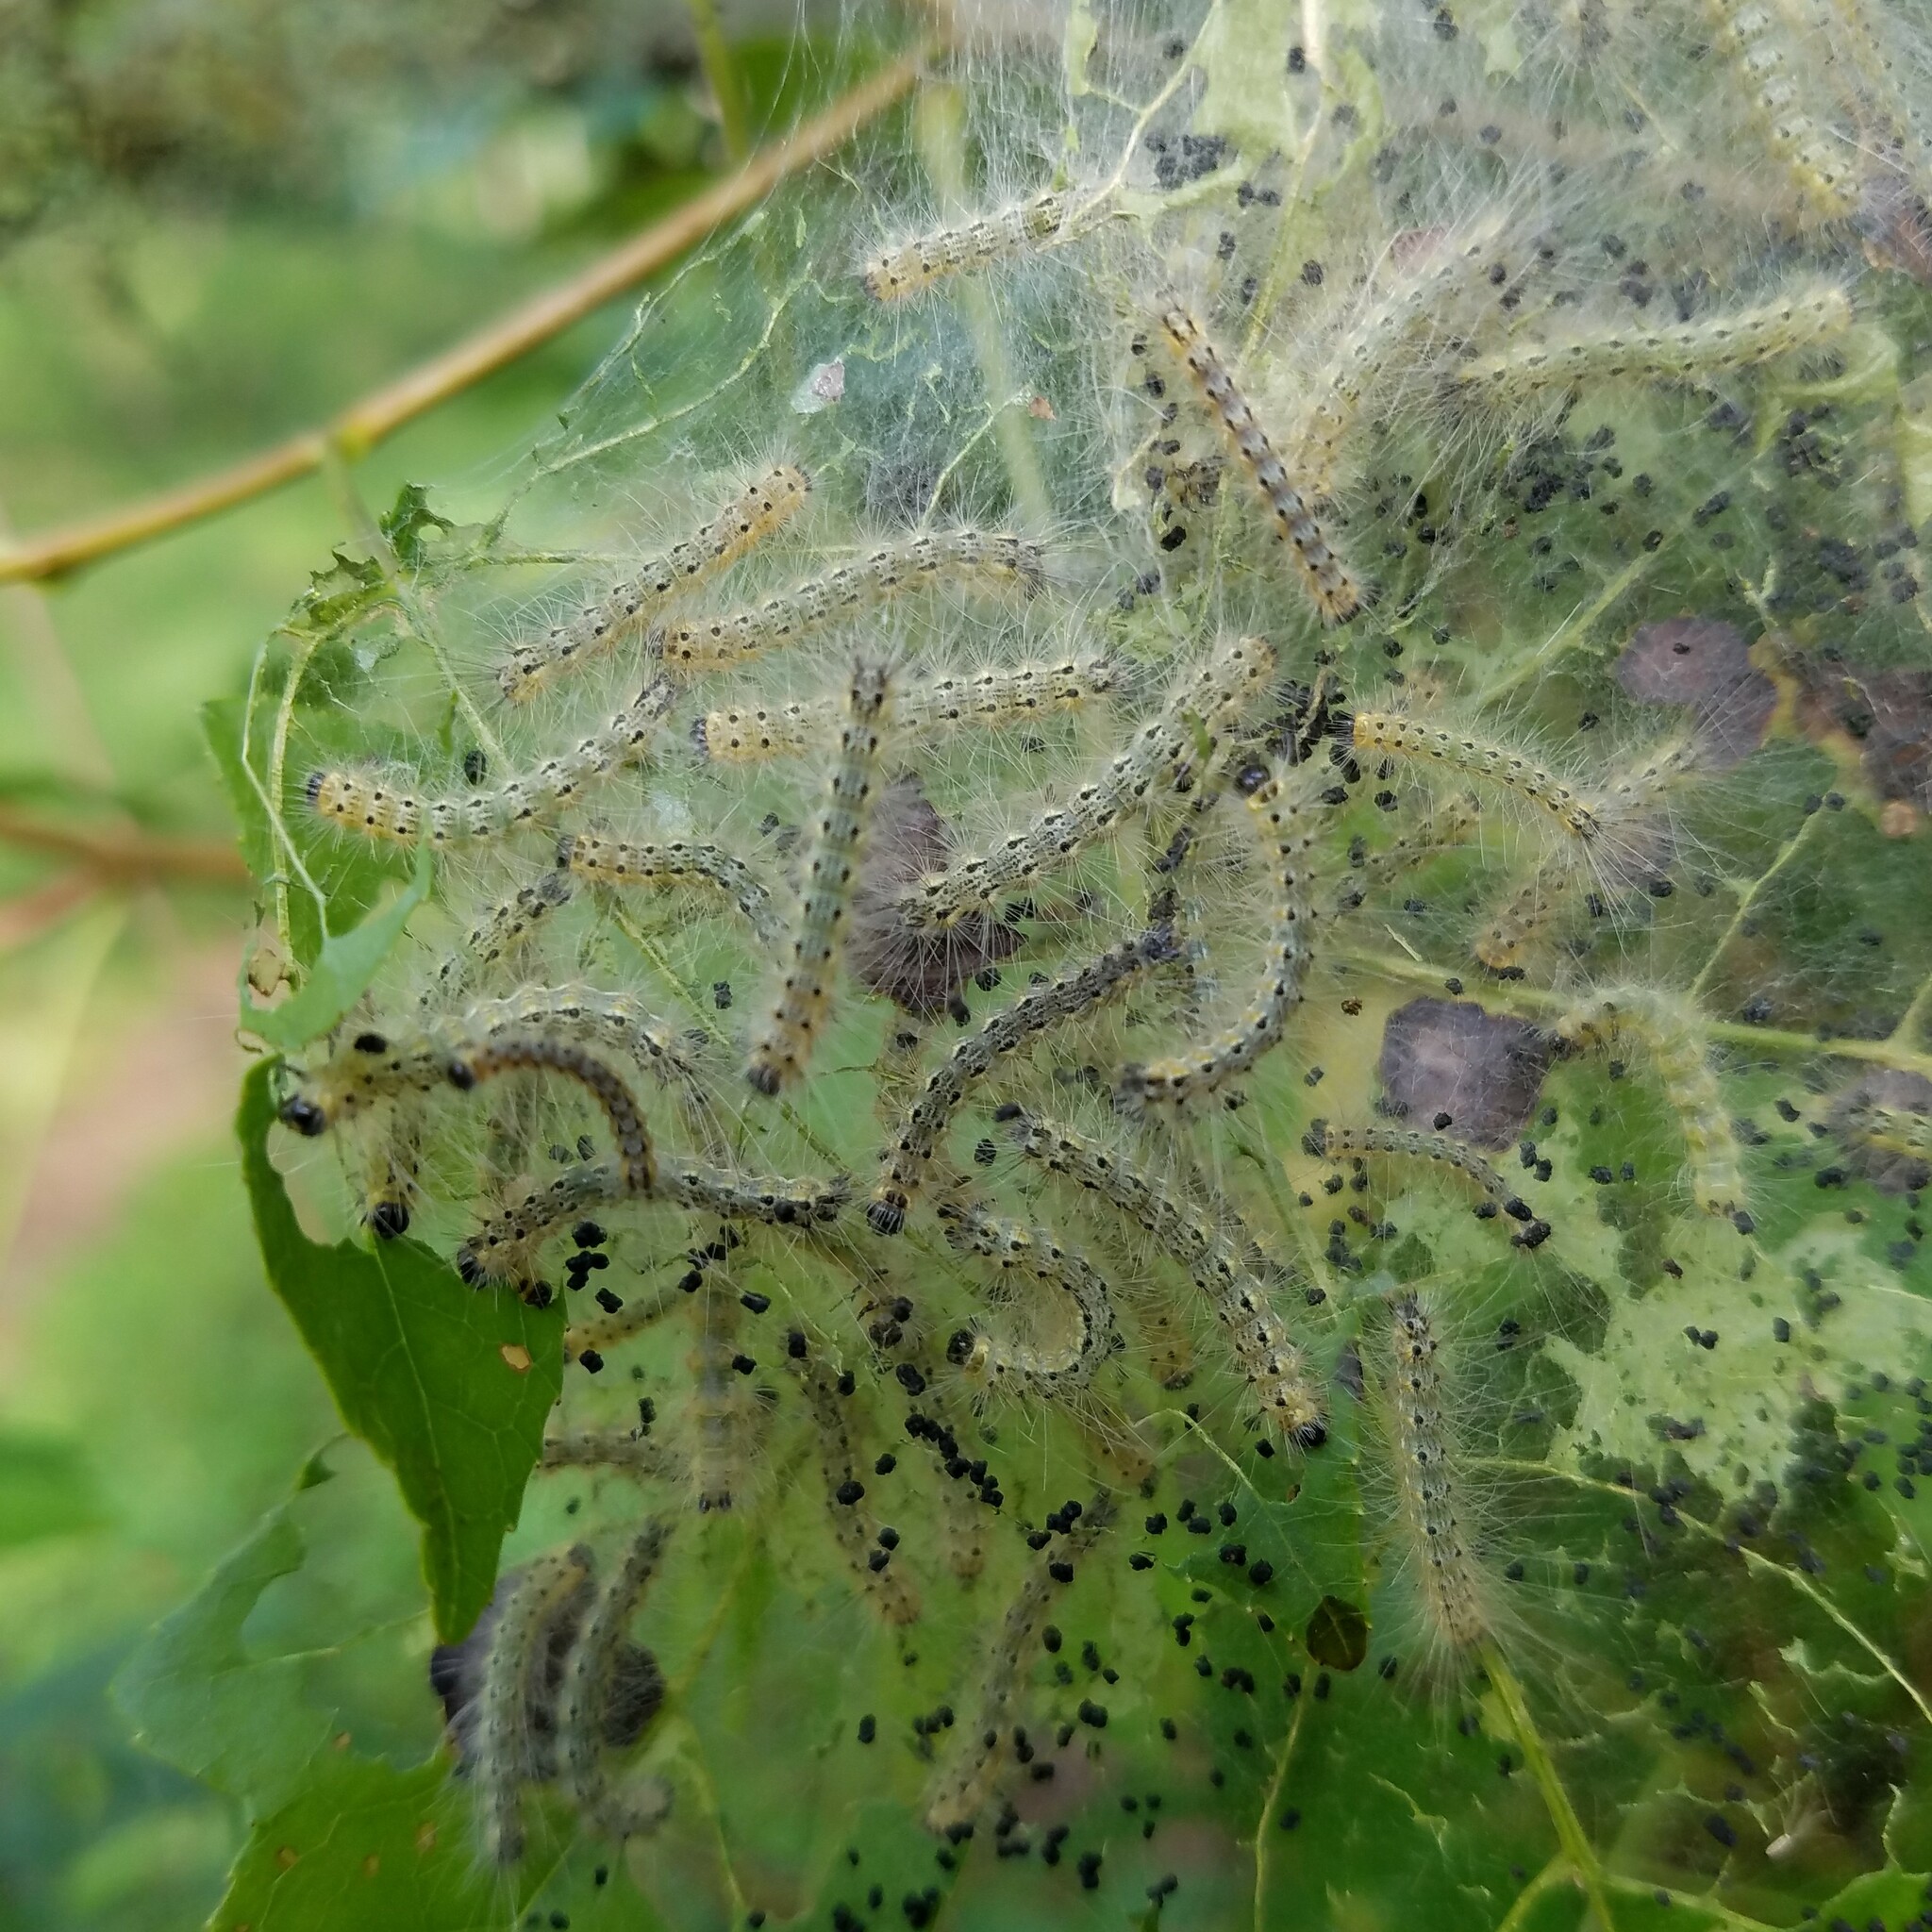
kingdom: Animalia
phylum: Arthropoda
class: Insecta
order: Lepidoptera
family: Erebidae
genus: Hyphantria
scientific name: Hyphantria cunea
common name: American white moth
